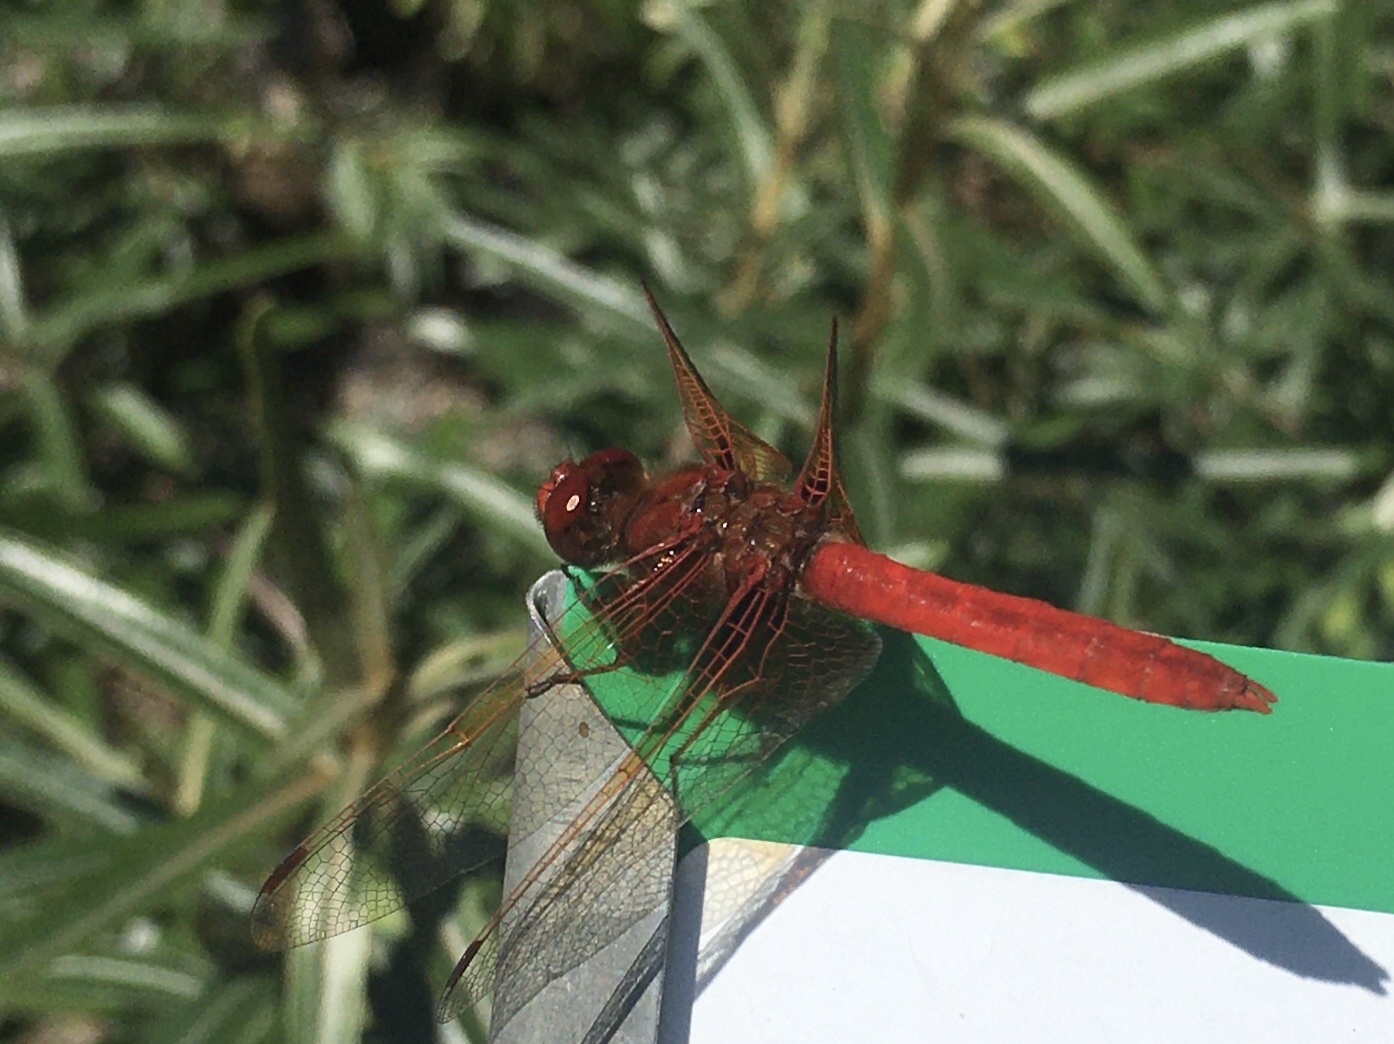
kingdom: Animalia
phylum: Arthropoda
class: Insecta
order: Odonata
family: Libellulidae
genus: Sympetrum
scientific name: Sympetrum illotum
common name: Cardinal meadowhawk
